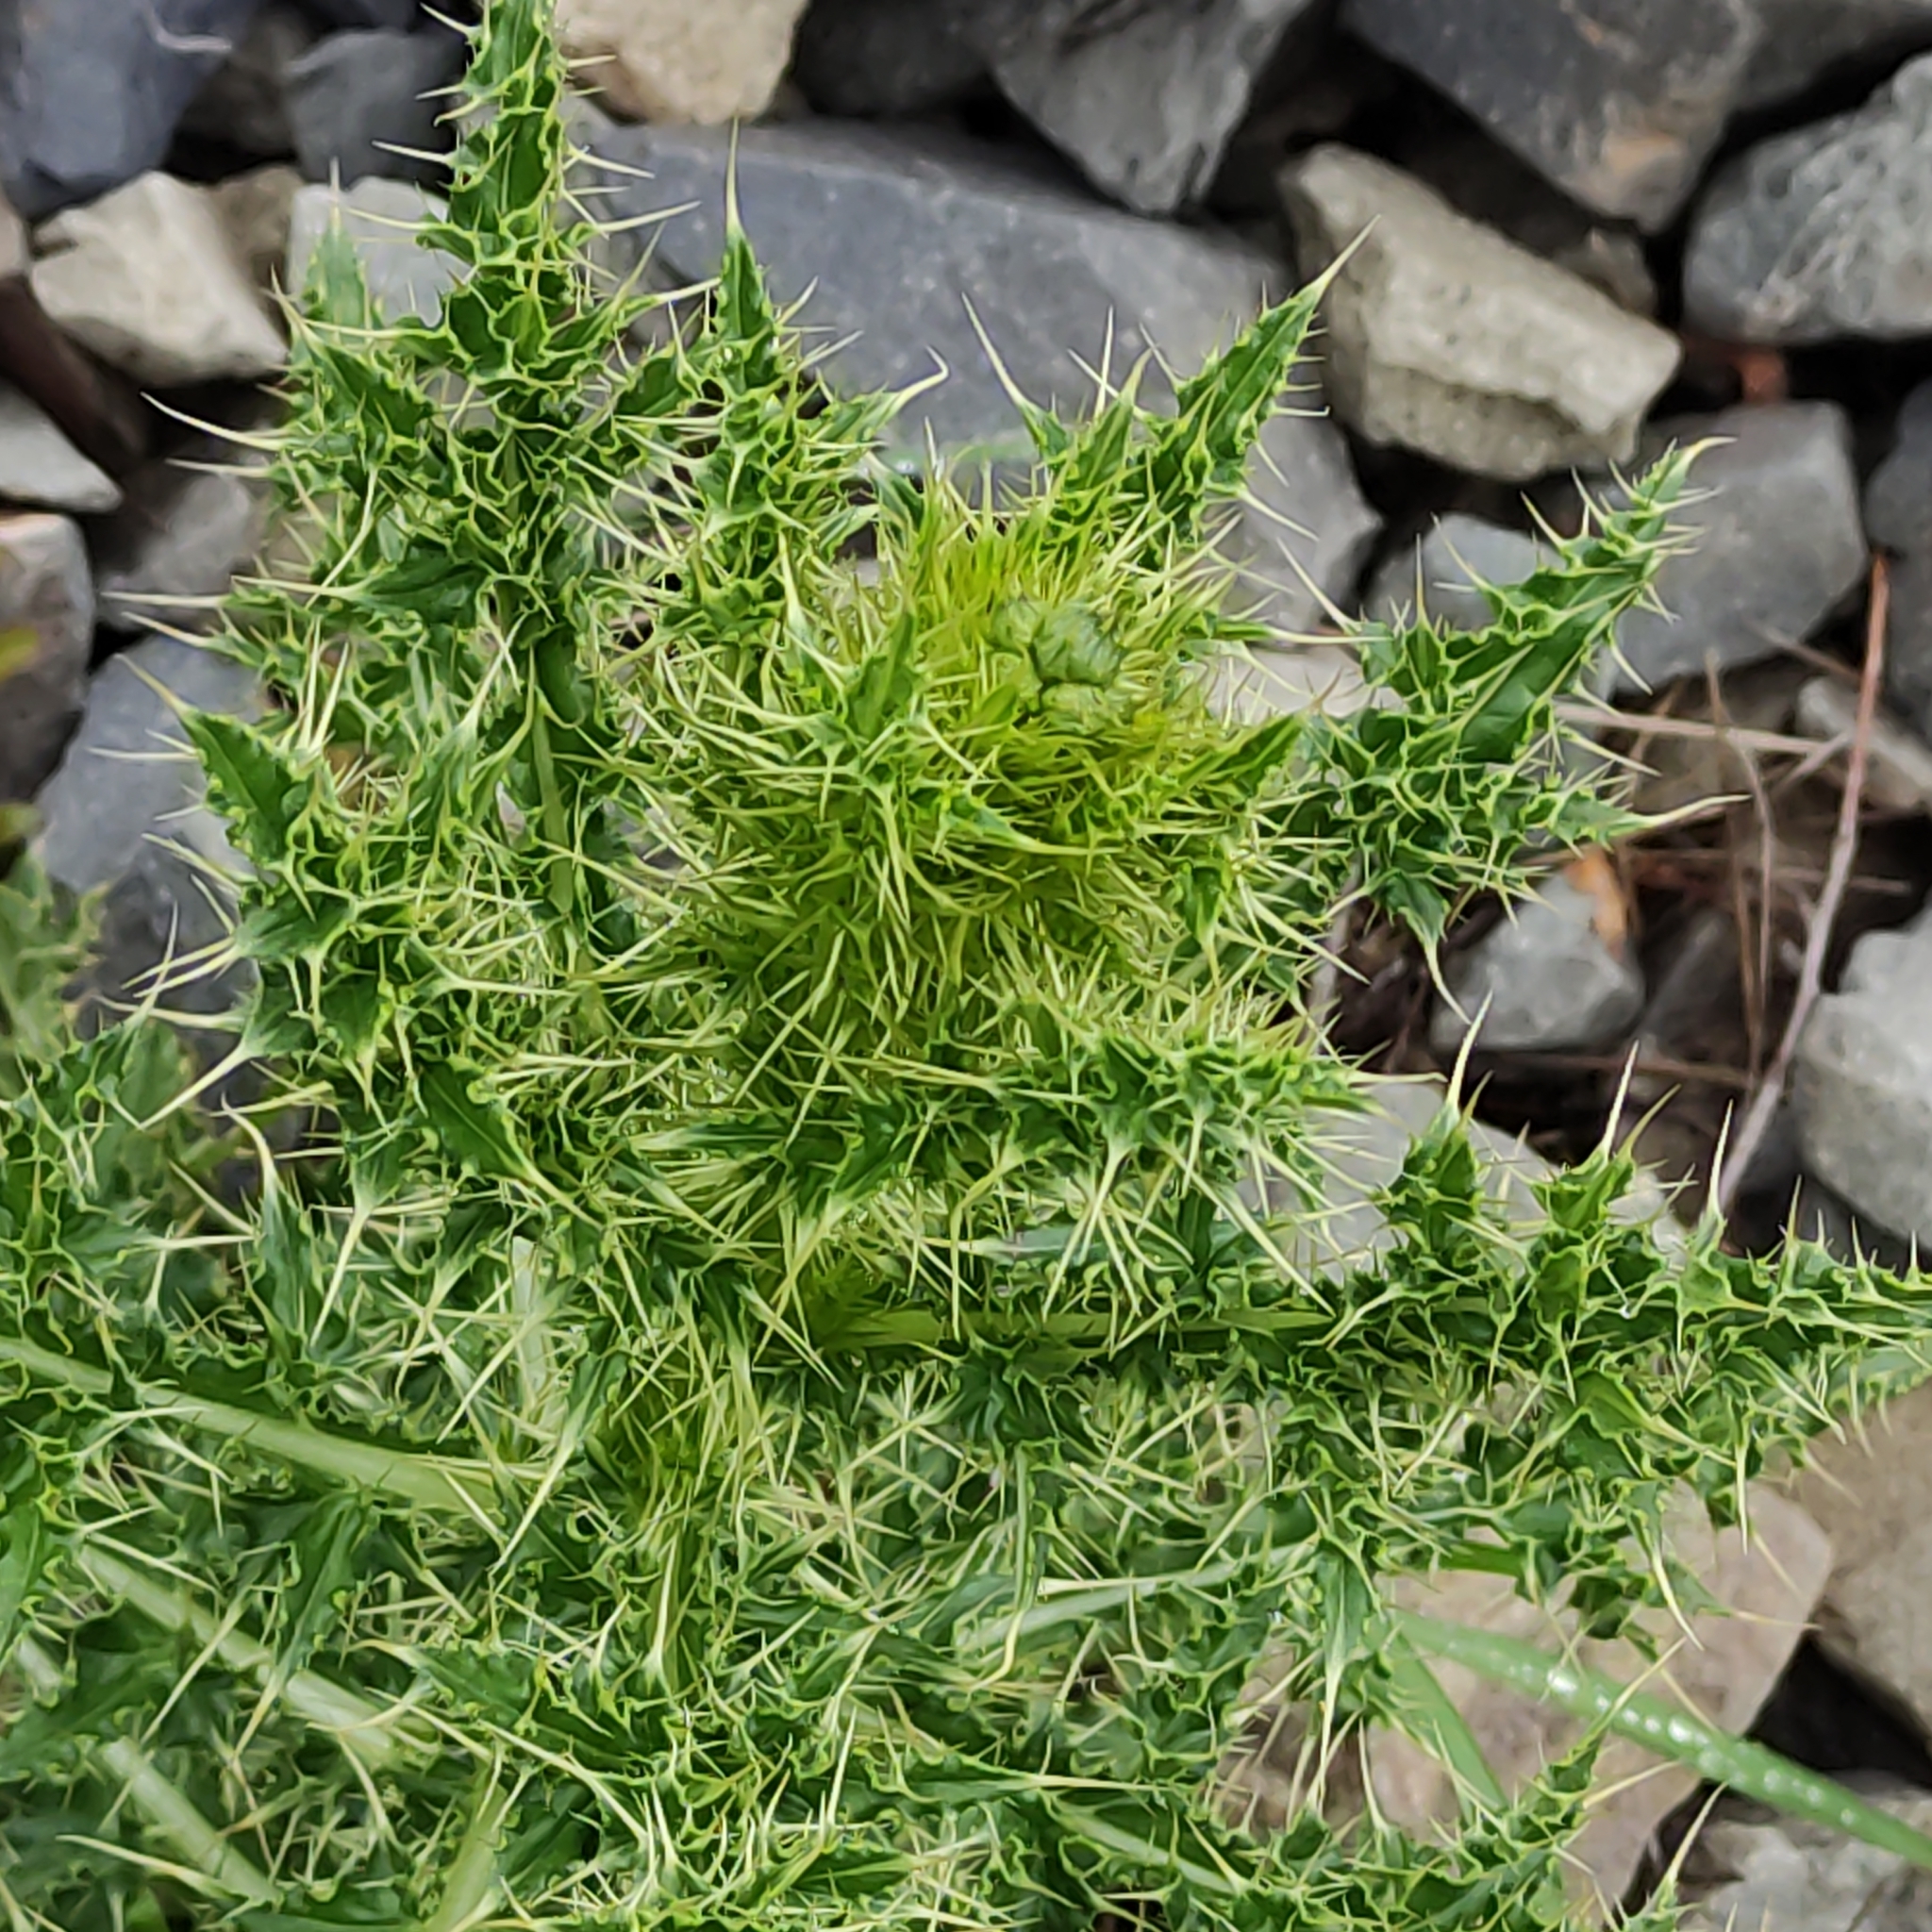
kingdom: Plantae
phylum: Tracheophyta
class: Magnoliopsida
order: Asterales
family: Asteraceae
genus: Cirsium
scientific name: Cirsium arvense
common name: Creeping thistle
